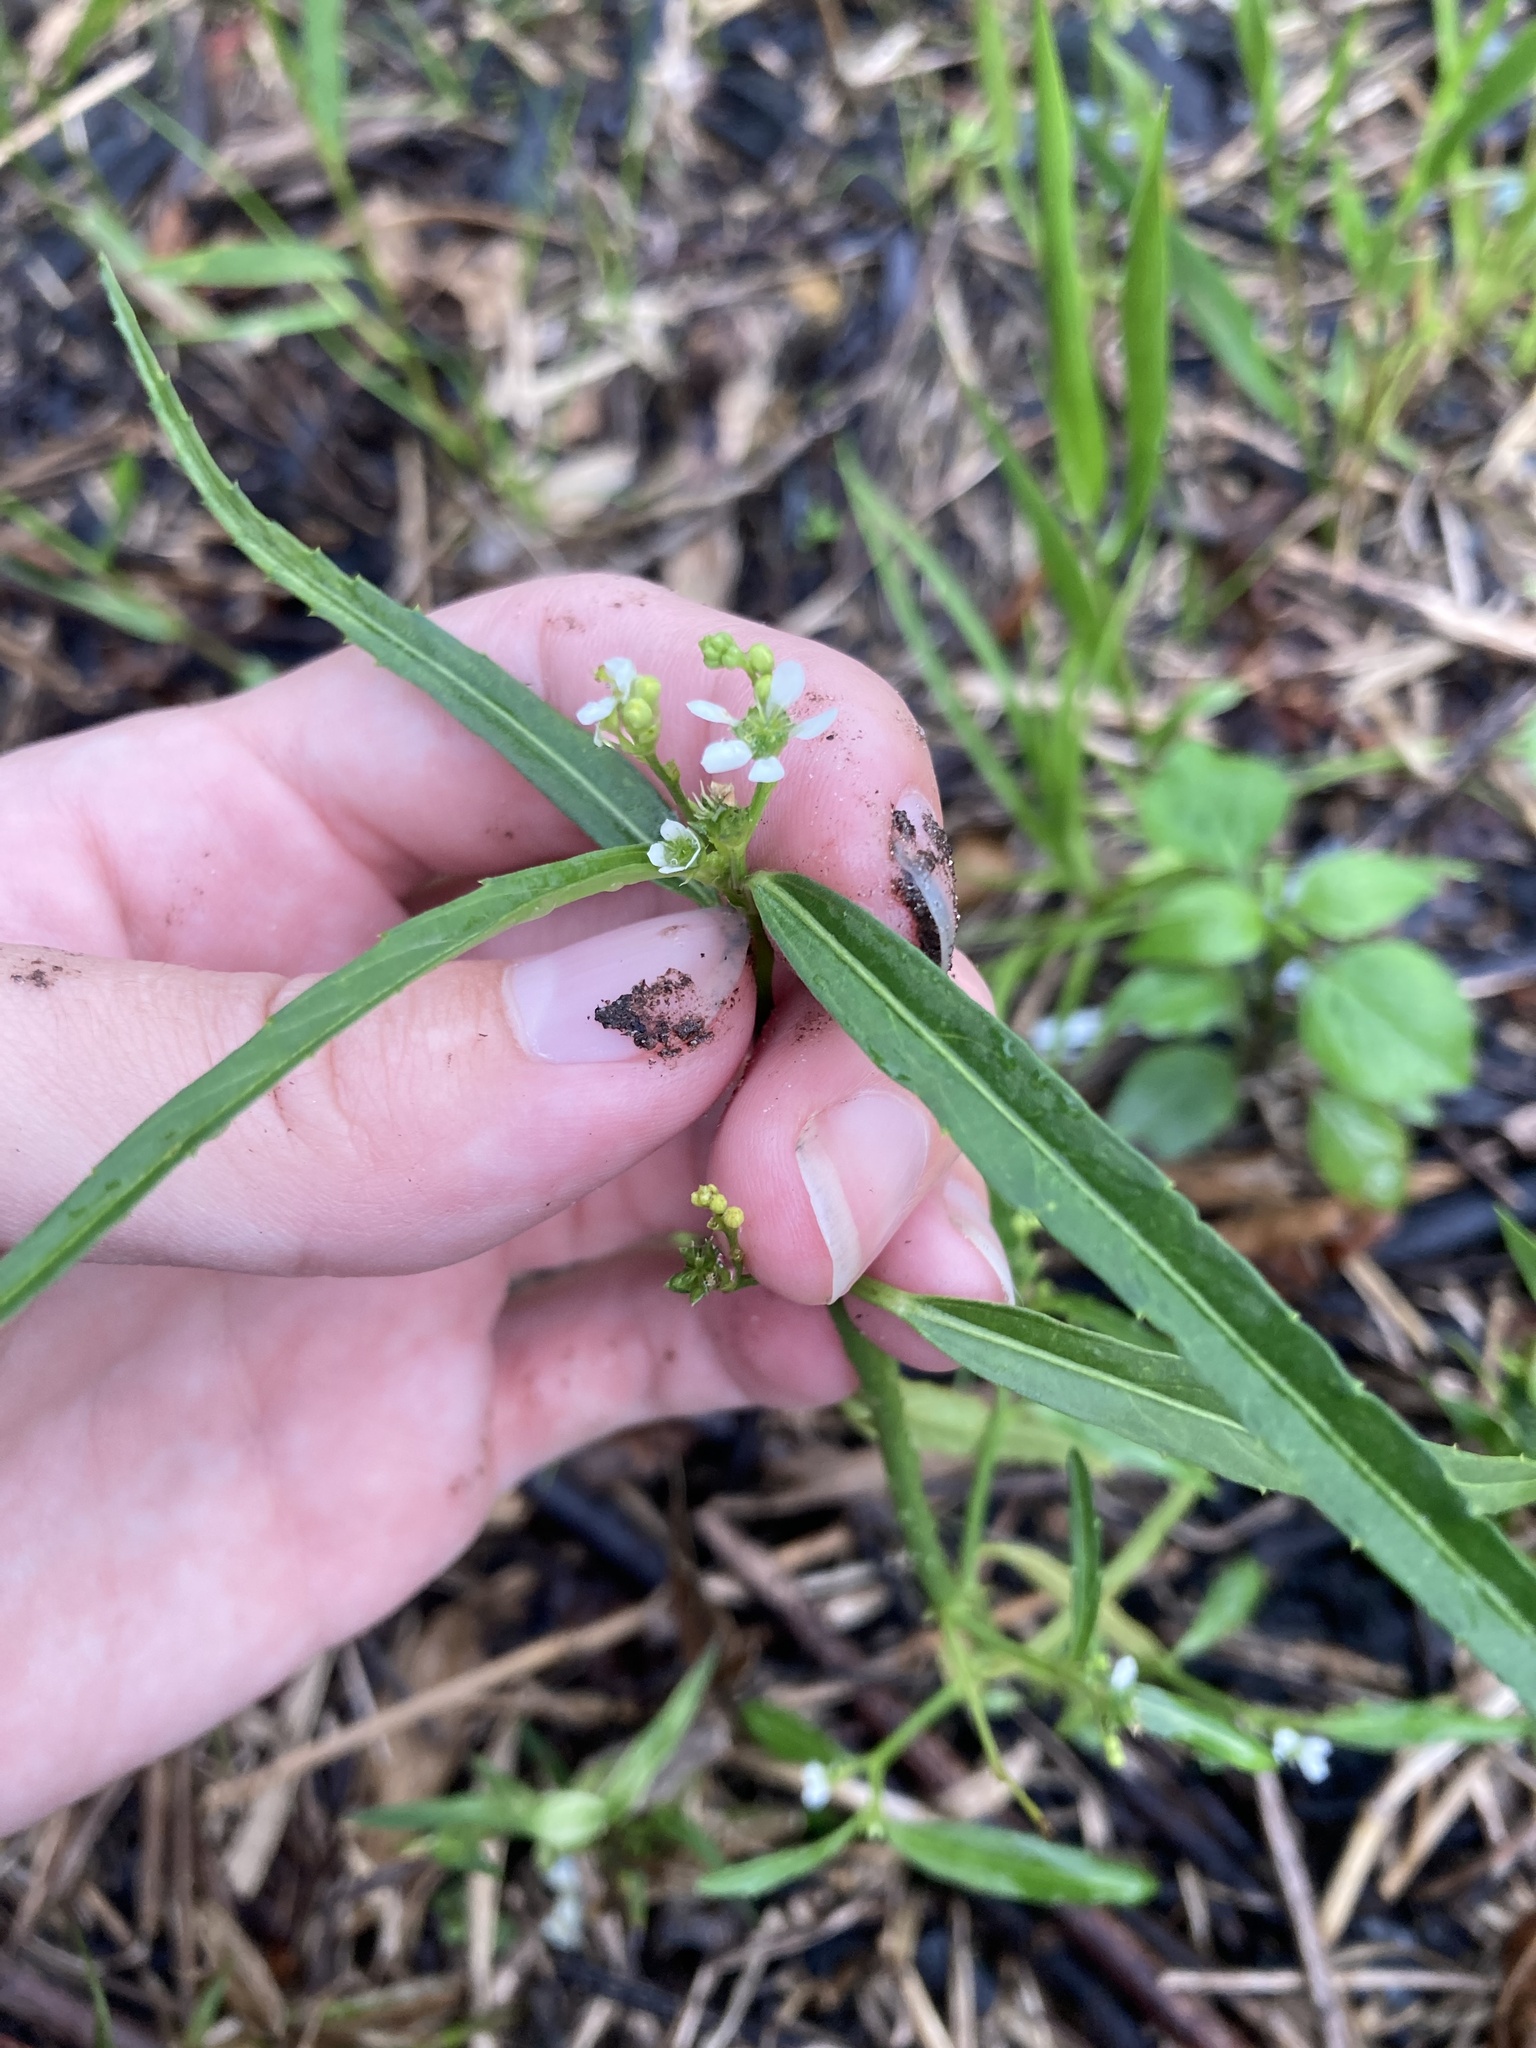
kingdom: Plantae
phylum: Tracheophyta
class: Magnoliopsida
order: Malpighiales
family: Euphorbiaceae
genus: Caperonia
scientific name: Caperonia castaneifolia
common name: Chestnutleaf false croton
